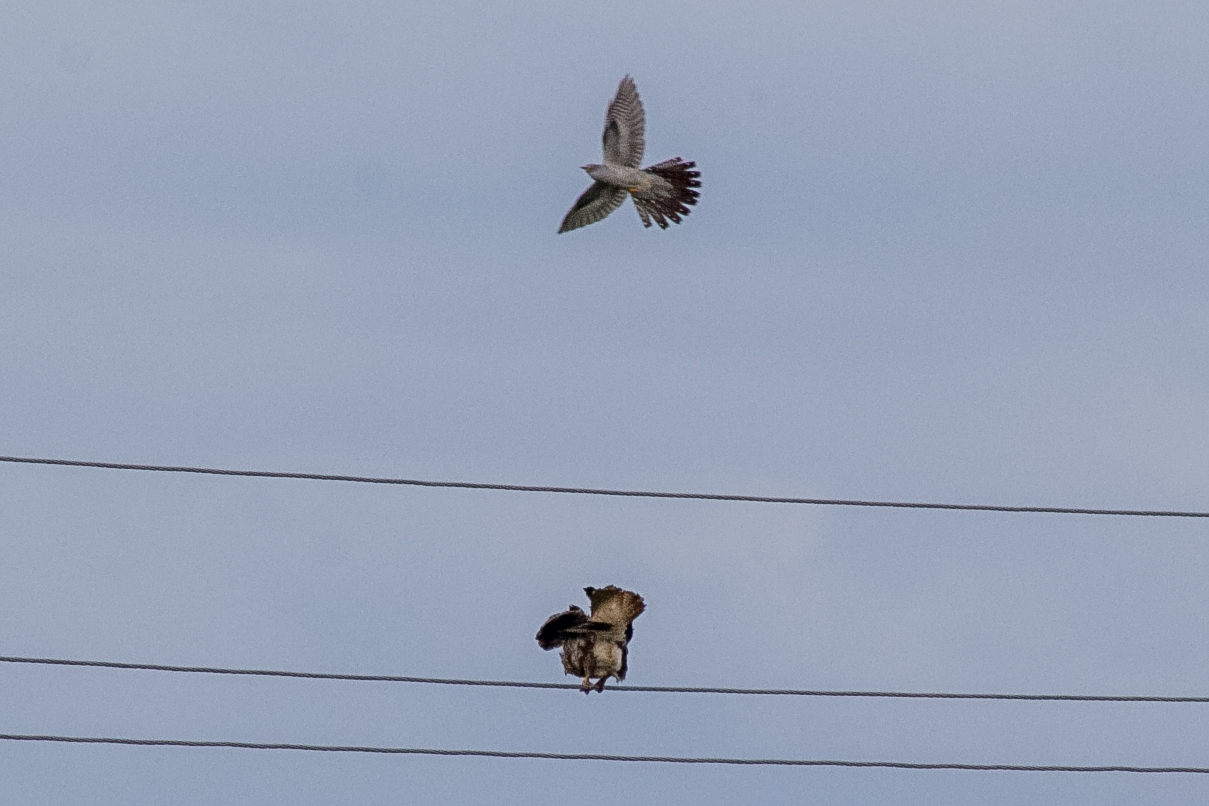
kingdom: Animalia
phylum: Chordata
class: Aves
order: Cuculiformes
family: Cuculidae
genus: Cuculus
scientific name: Cuculus canorus
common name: Common cuckoo
